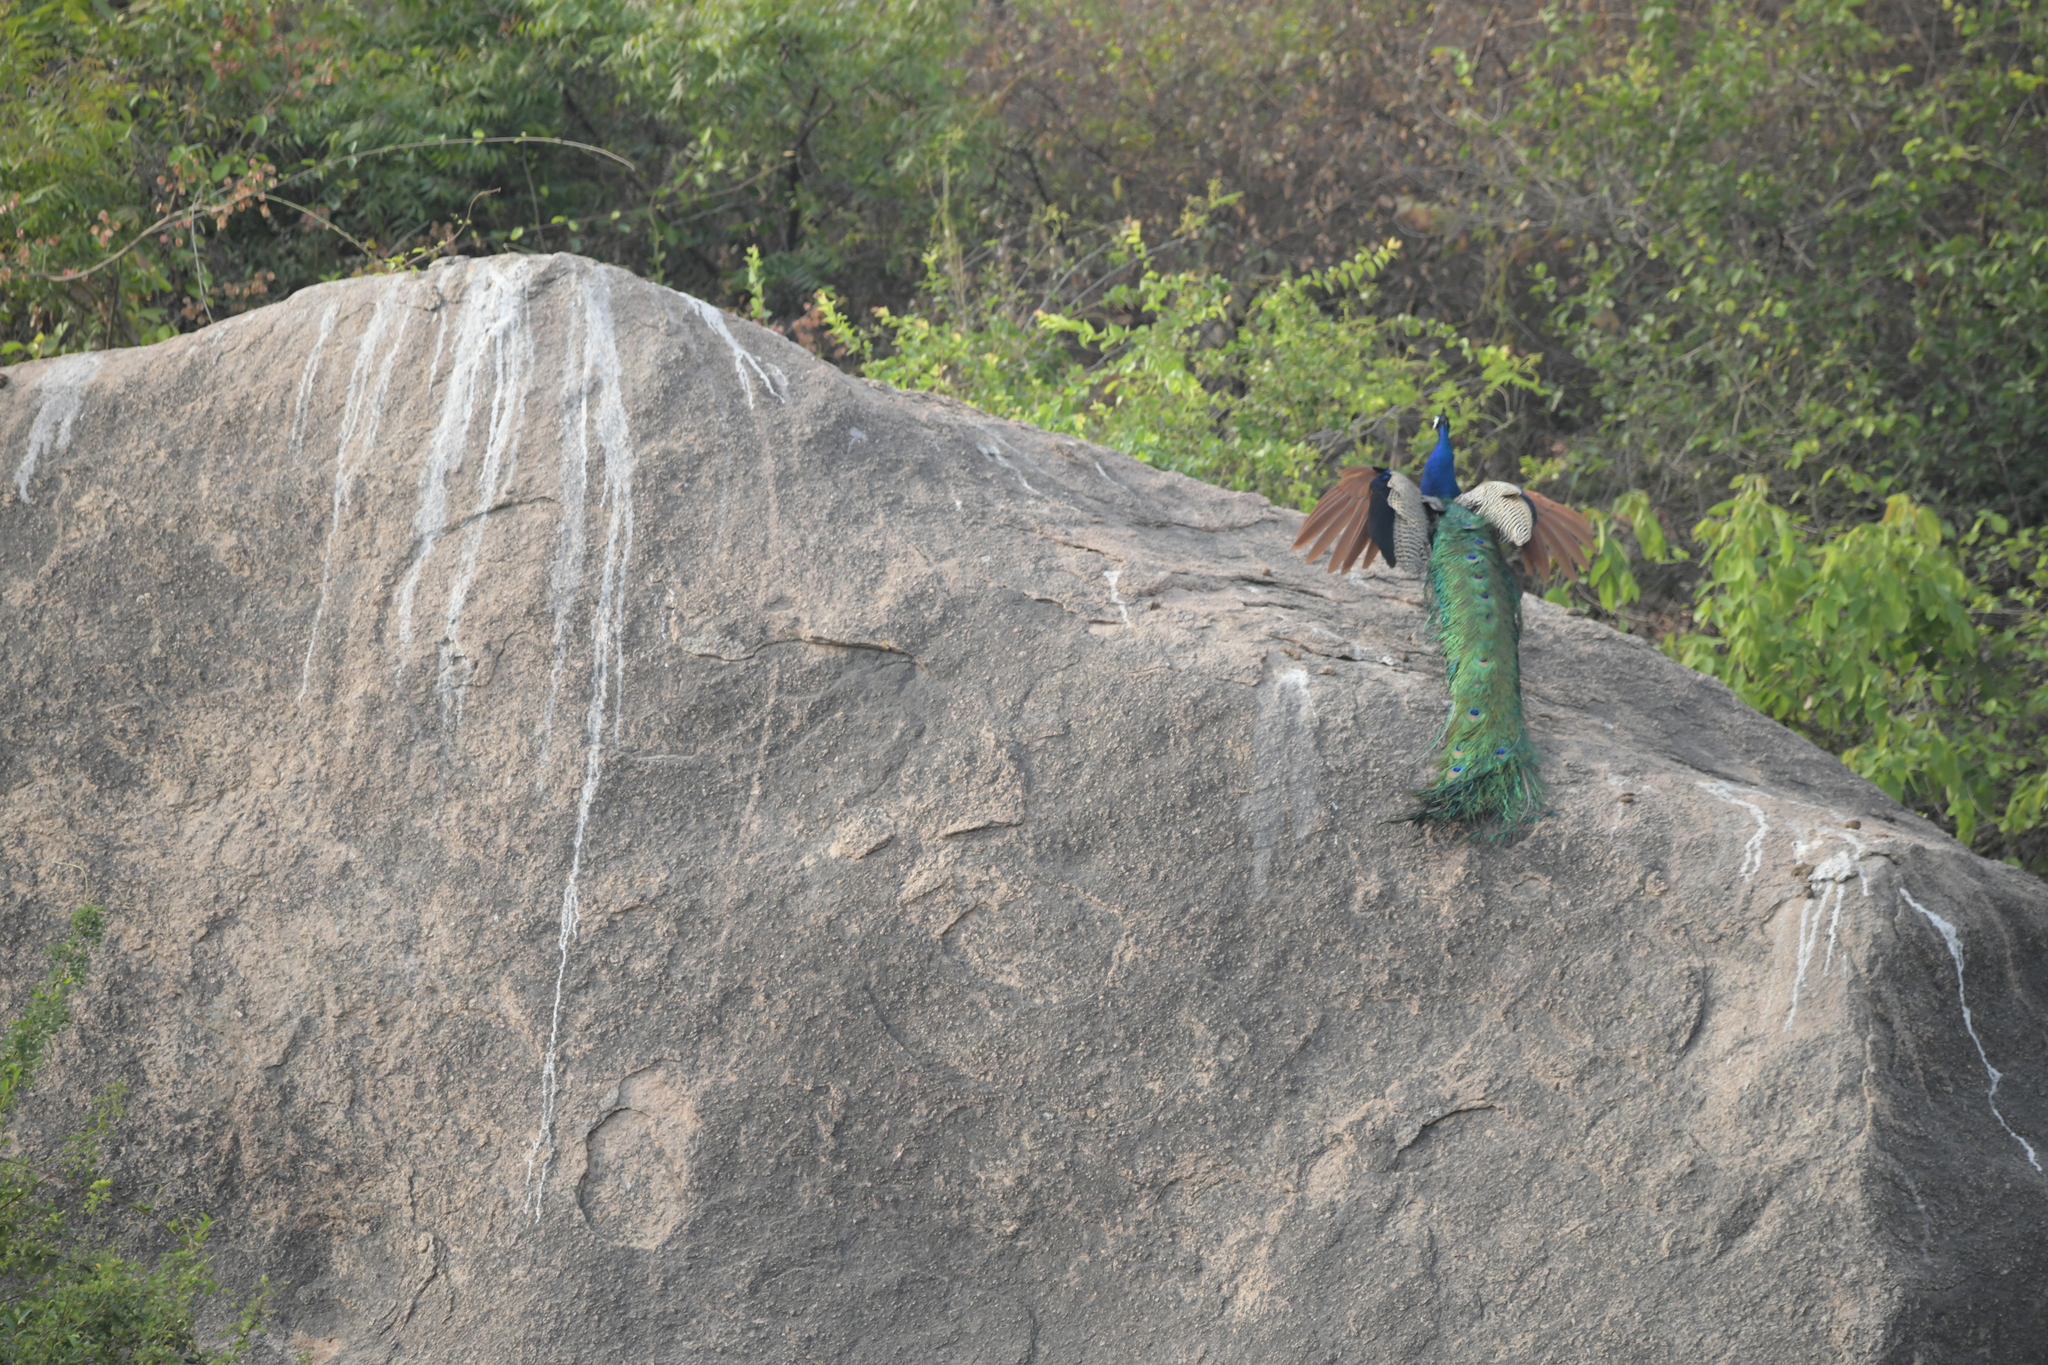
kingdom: Animalia
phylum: Chordata
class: Aves
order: Galliformes
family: Phasianidae
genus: Pavo
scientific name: Pavo cristatus
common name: Indian peafowl
